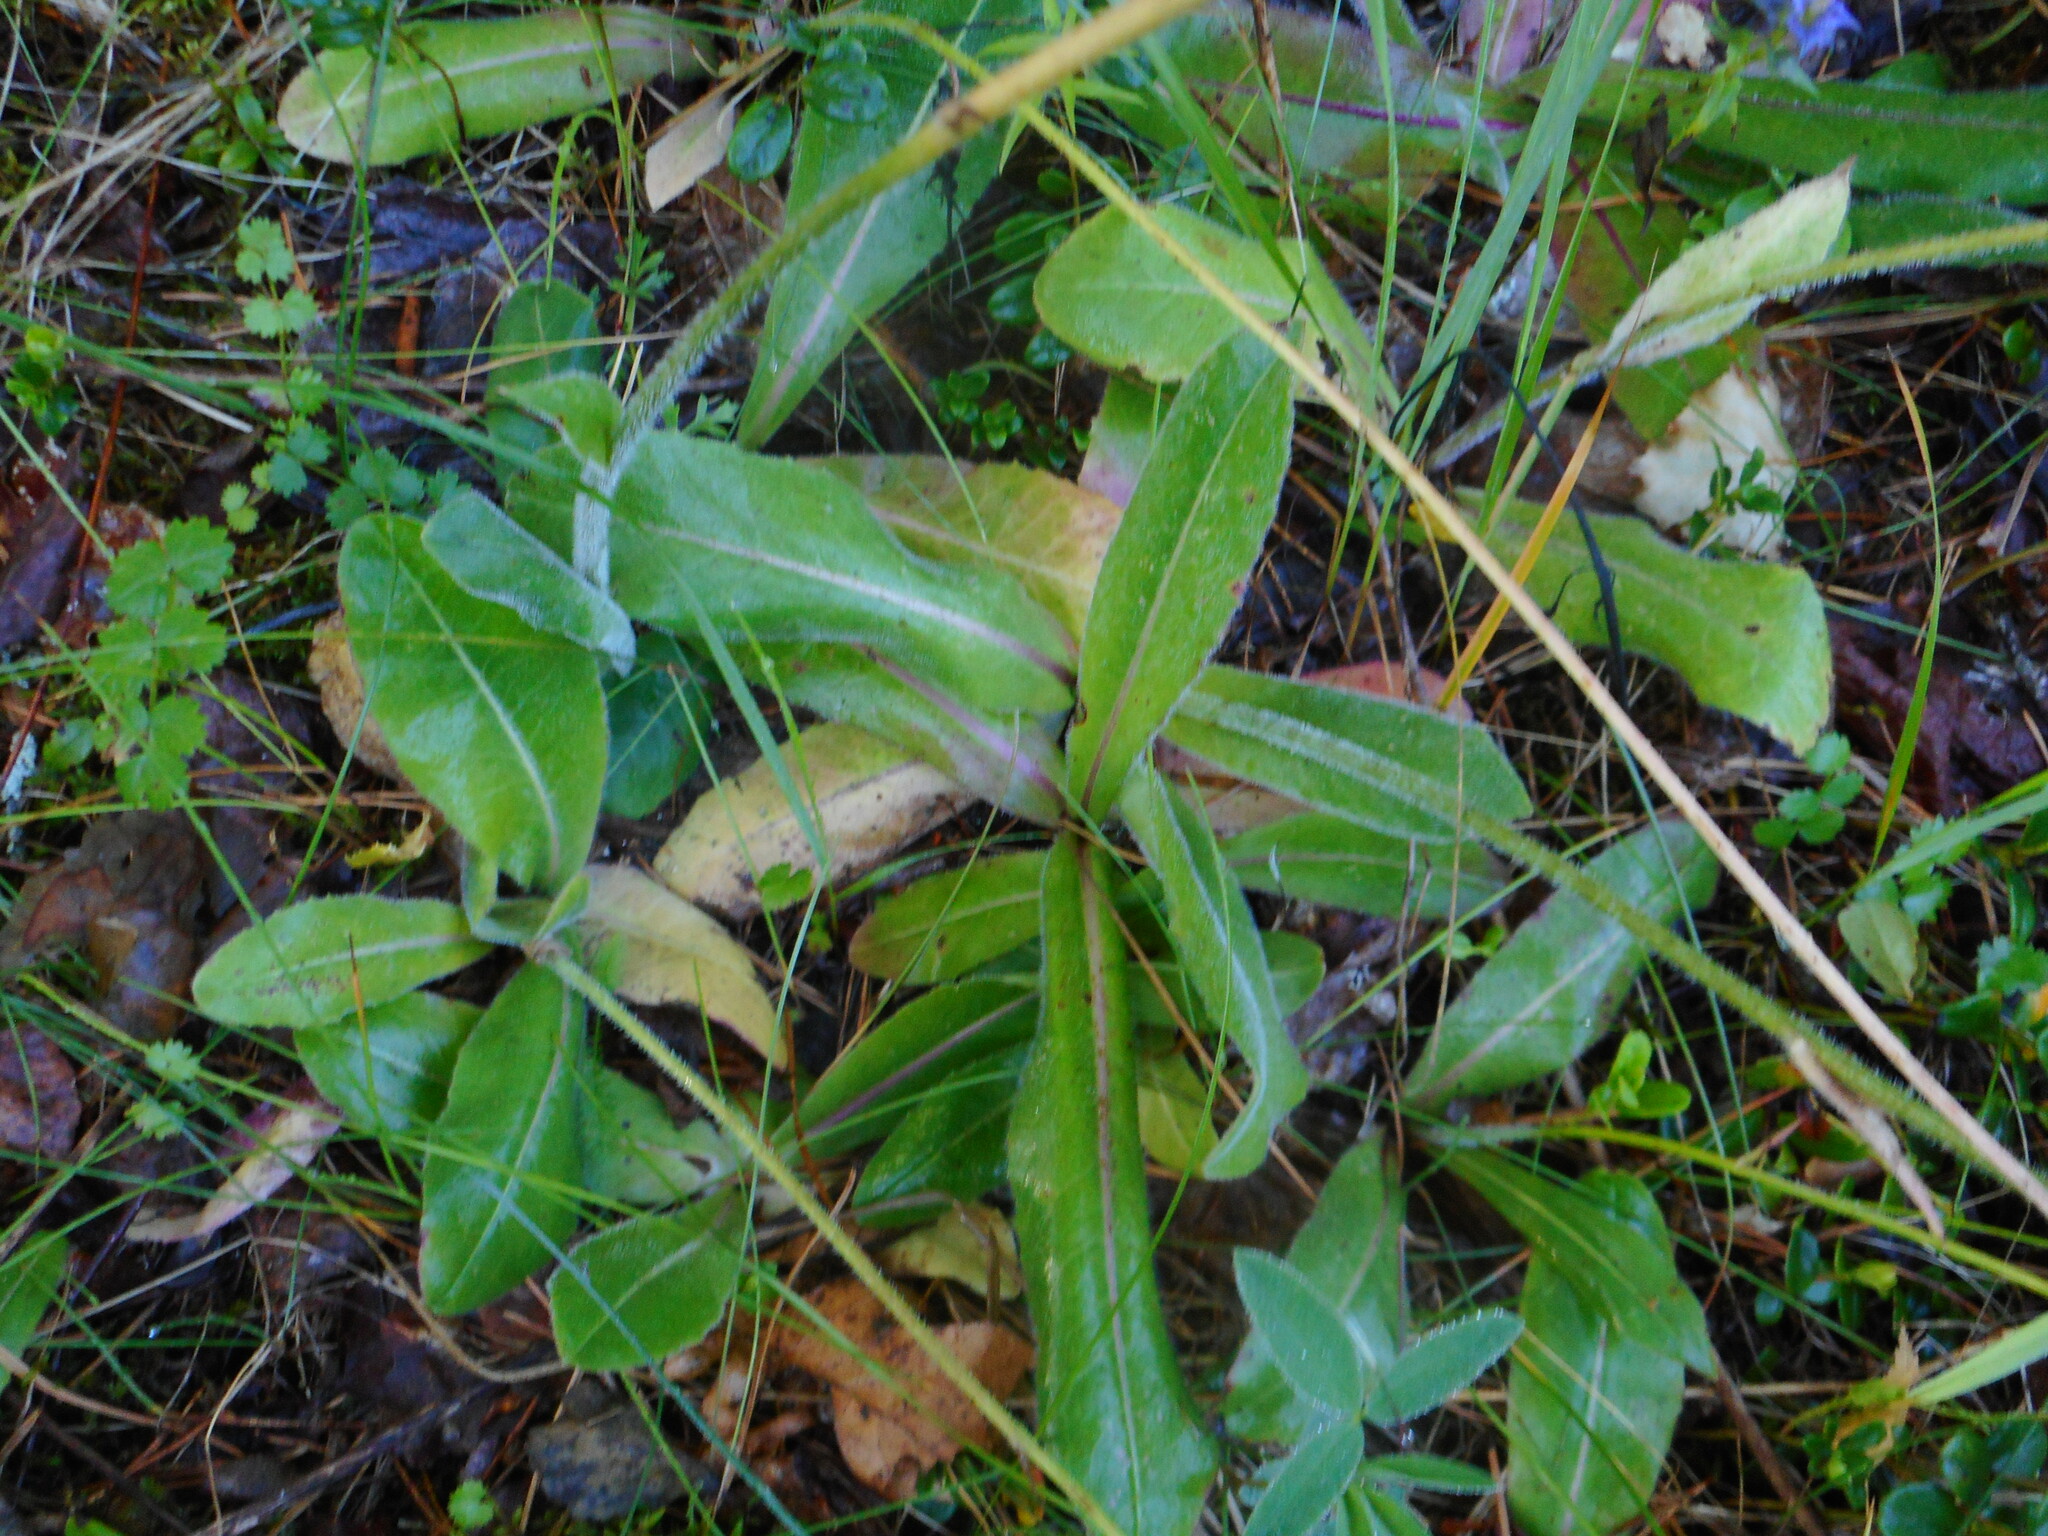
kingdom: Plantae
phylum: Tracheophyta
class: Magnoliopsida
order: Asterales
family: Asteraceae
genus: Trommsdorffia
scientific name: Trommsdorffia maculata
